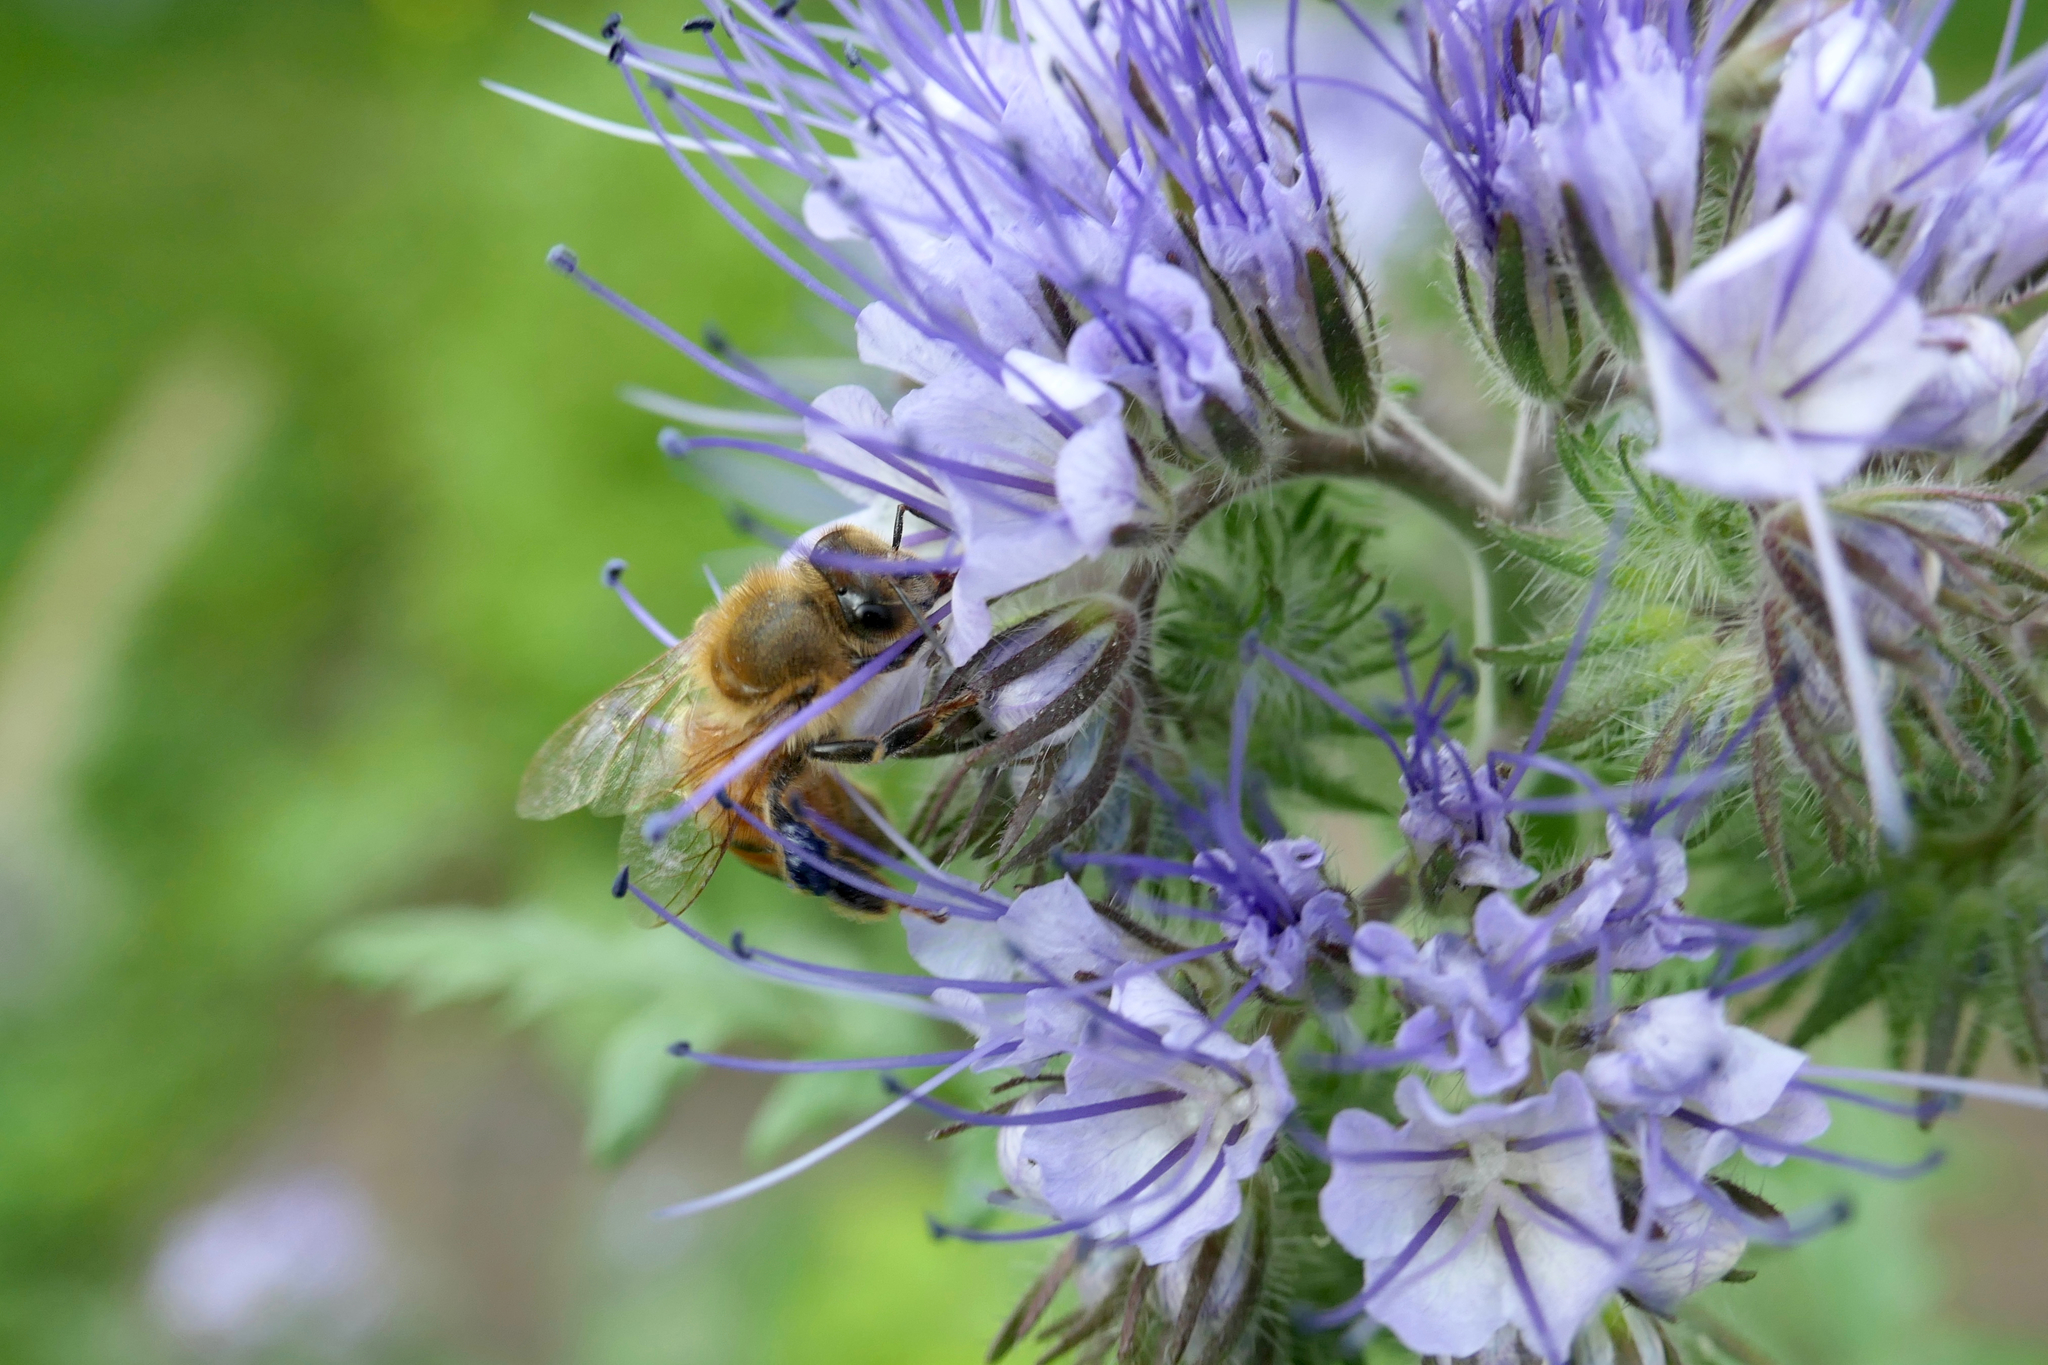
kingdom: Animalia
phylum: Arthropoda
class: Insecta
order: Hymenoptera
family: Apidae
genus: Apis
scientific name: Apis mellifera
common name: Honey bee
